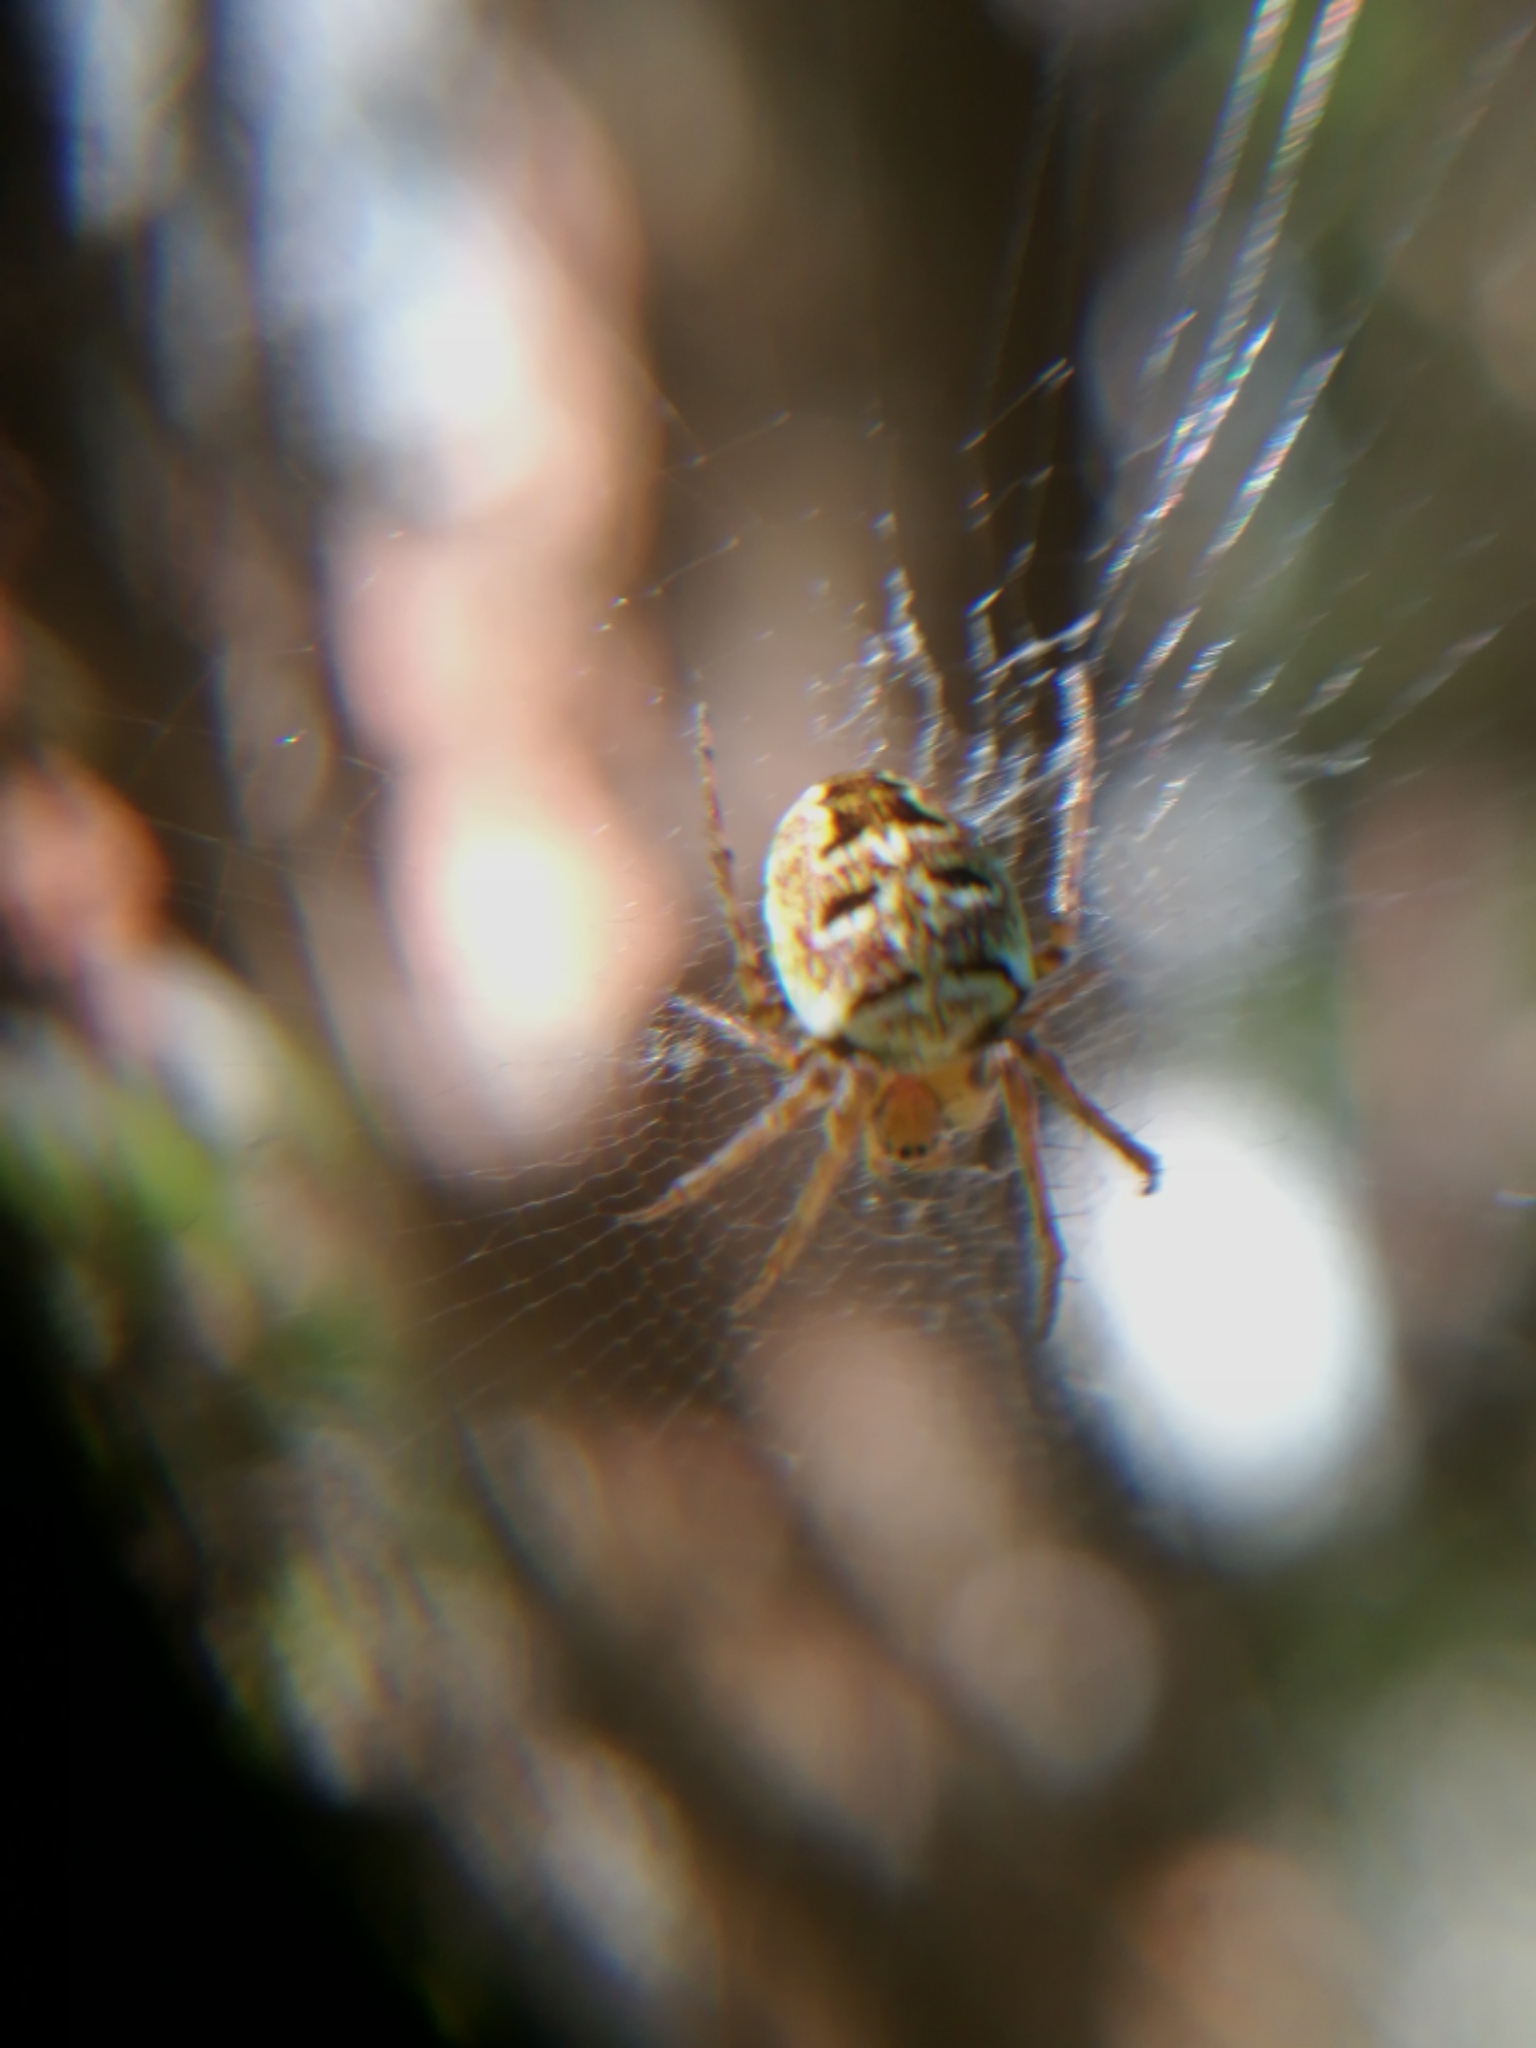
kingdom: Animalia
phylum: Arthropoda
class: Arachnida
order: Araneae
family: Araneidae
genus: Zilla
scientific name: Zilla diodia
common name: Zilla diodia
